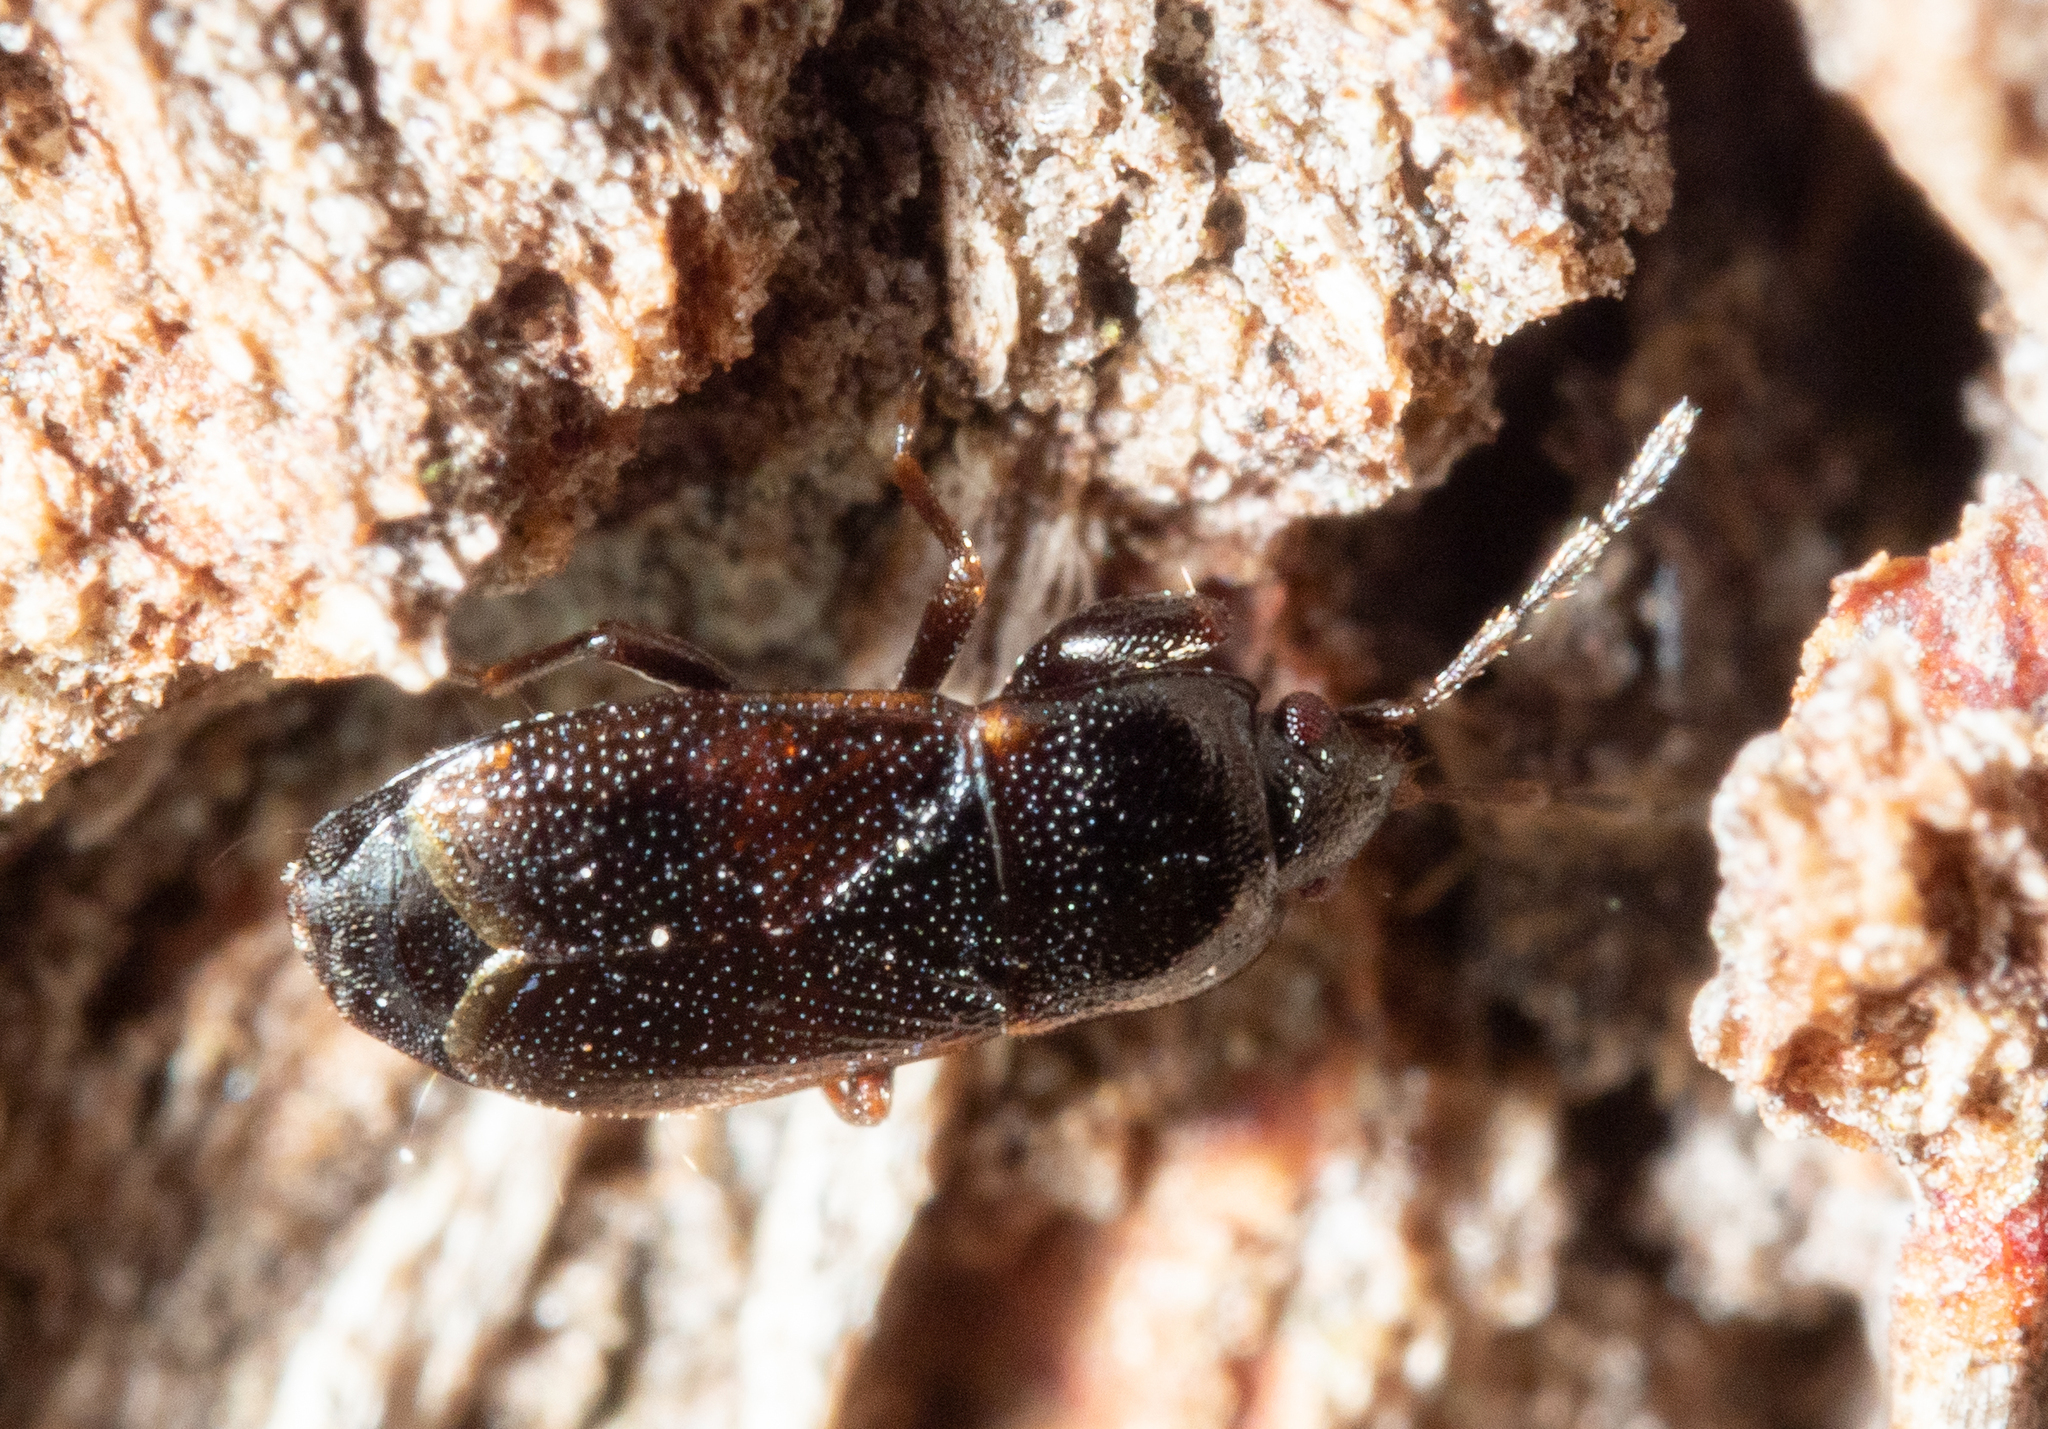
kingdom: Animalia
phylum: Arthropoda
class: Insecta
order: Hemiptera
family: Rhyparochromidae
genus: Plinthisus
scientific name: Plinthisus woodwardi
